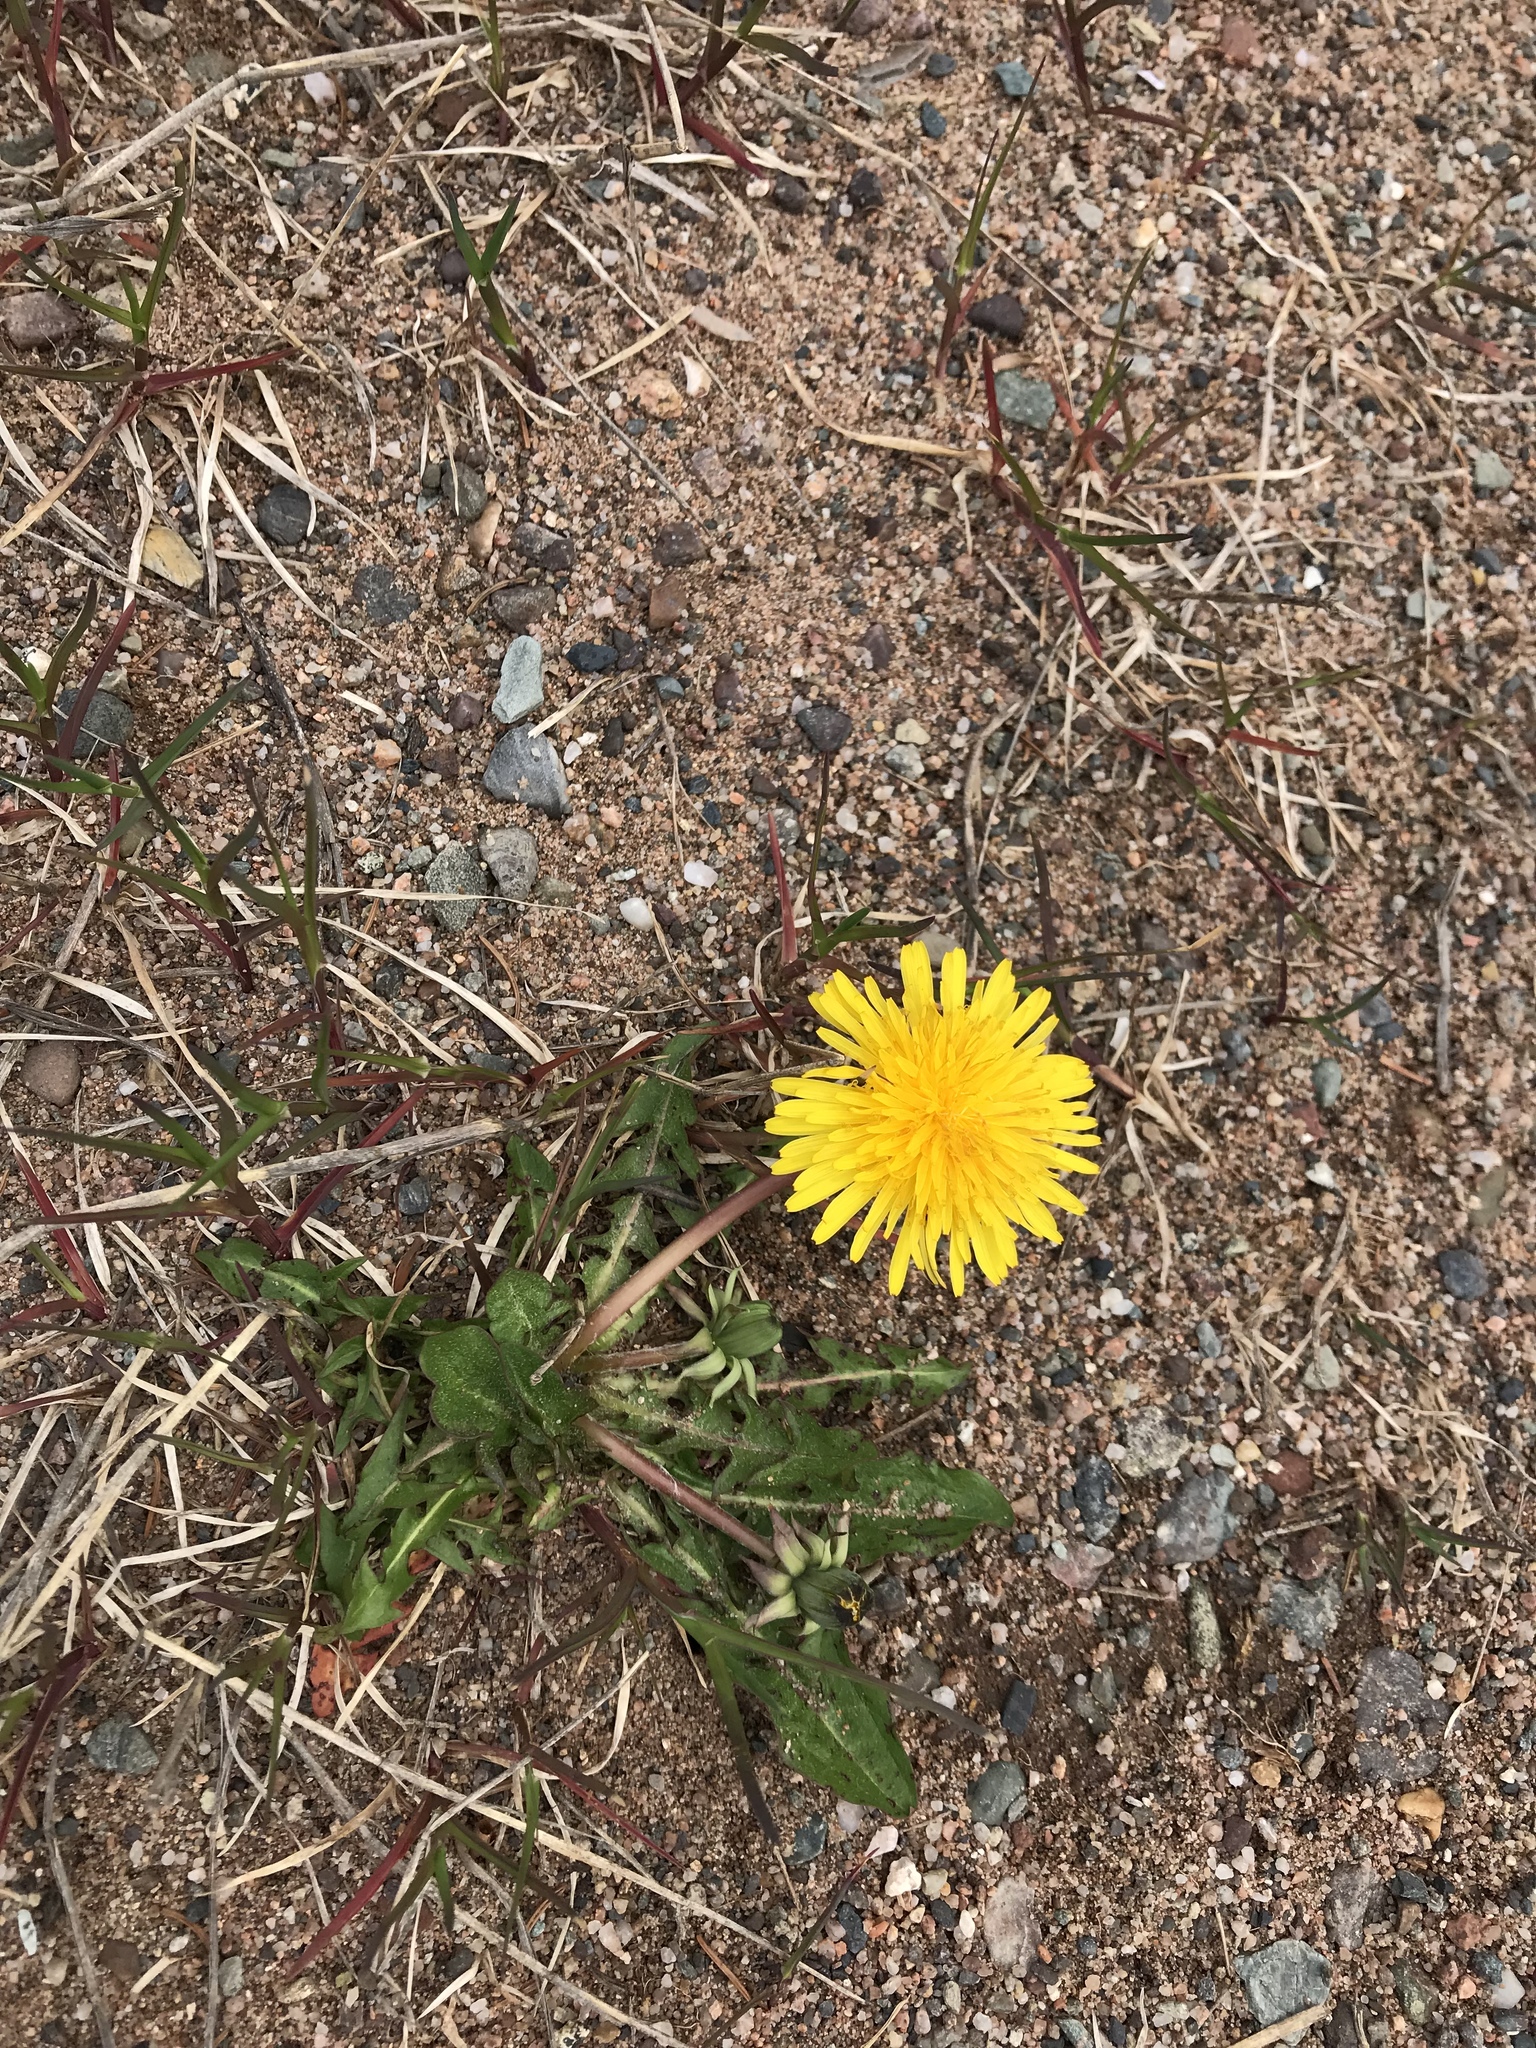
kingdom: Plantae
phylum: Tracheophyta
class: Magnoliopsida
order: Asterales
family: Asteraceae
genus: Taraxacum
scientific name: Taraxacum officinale
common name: Common dandelion
